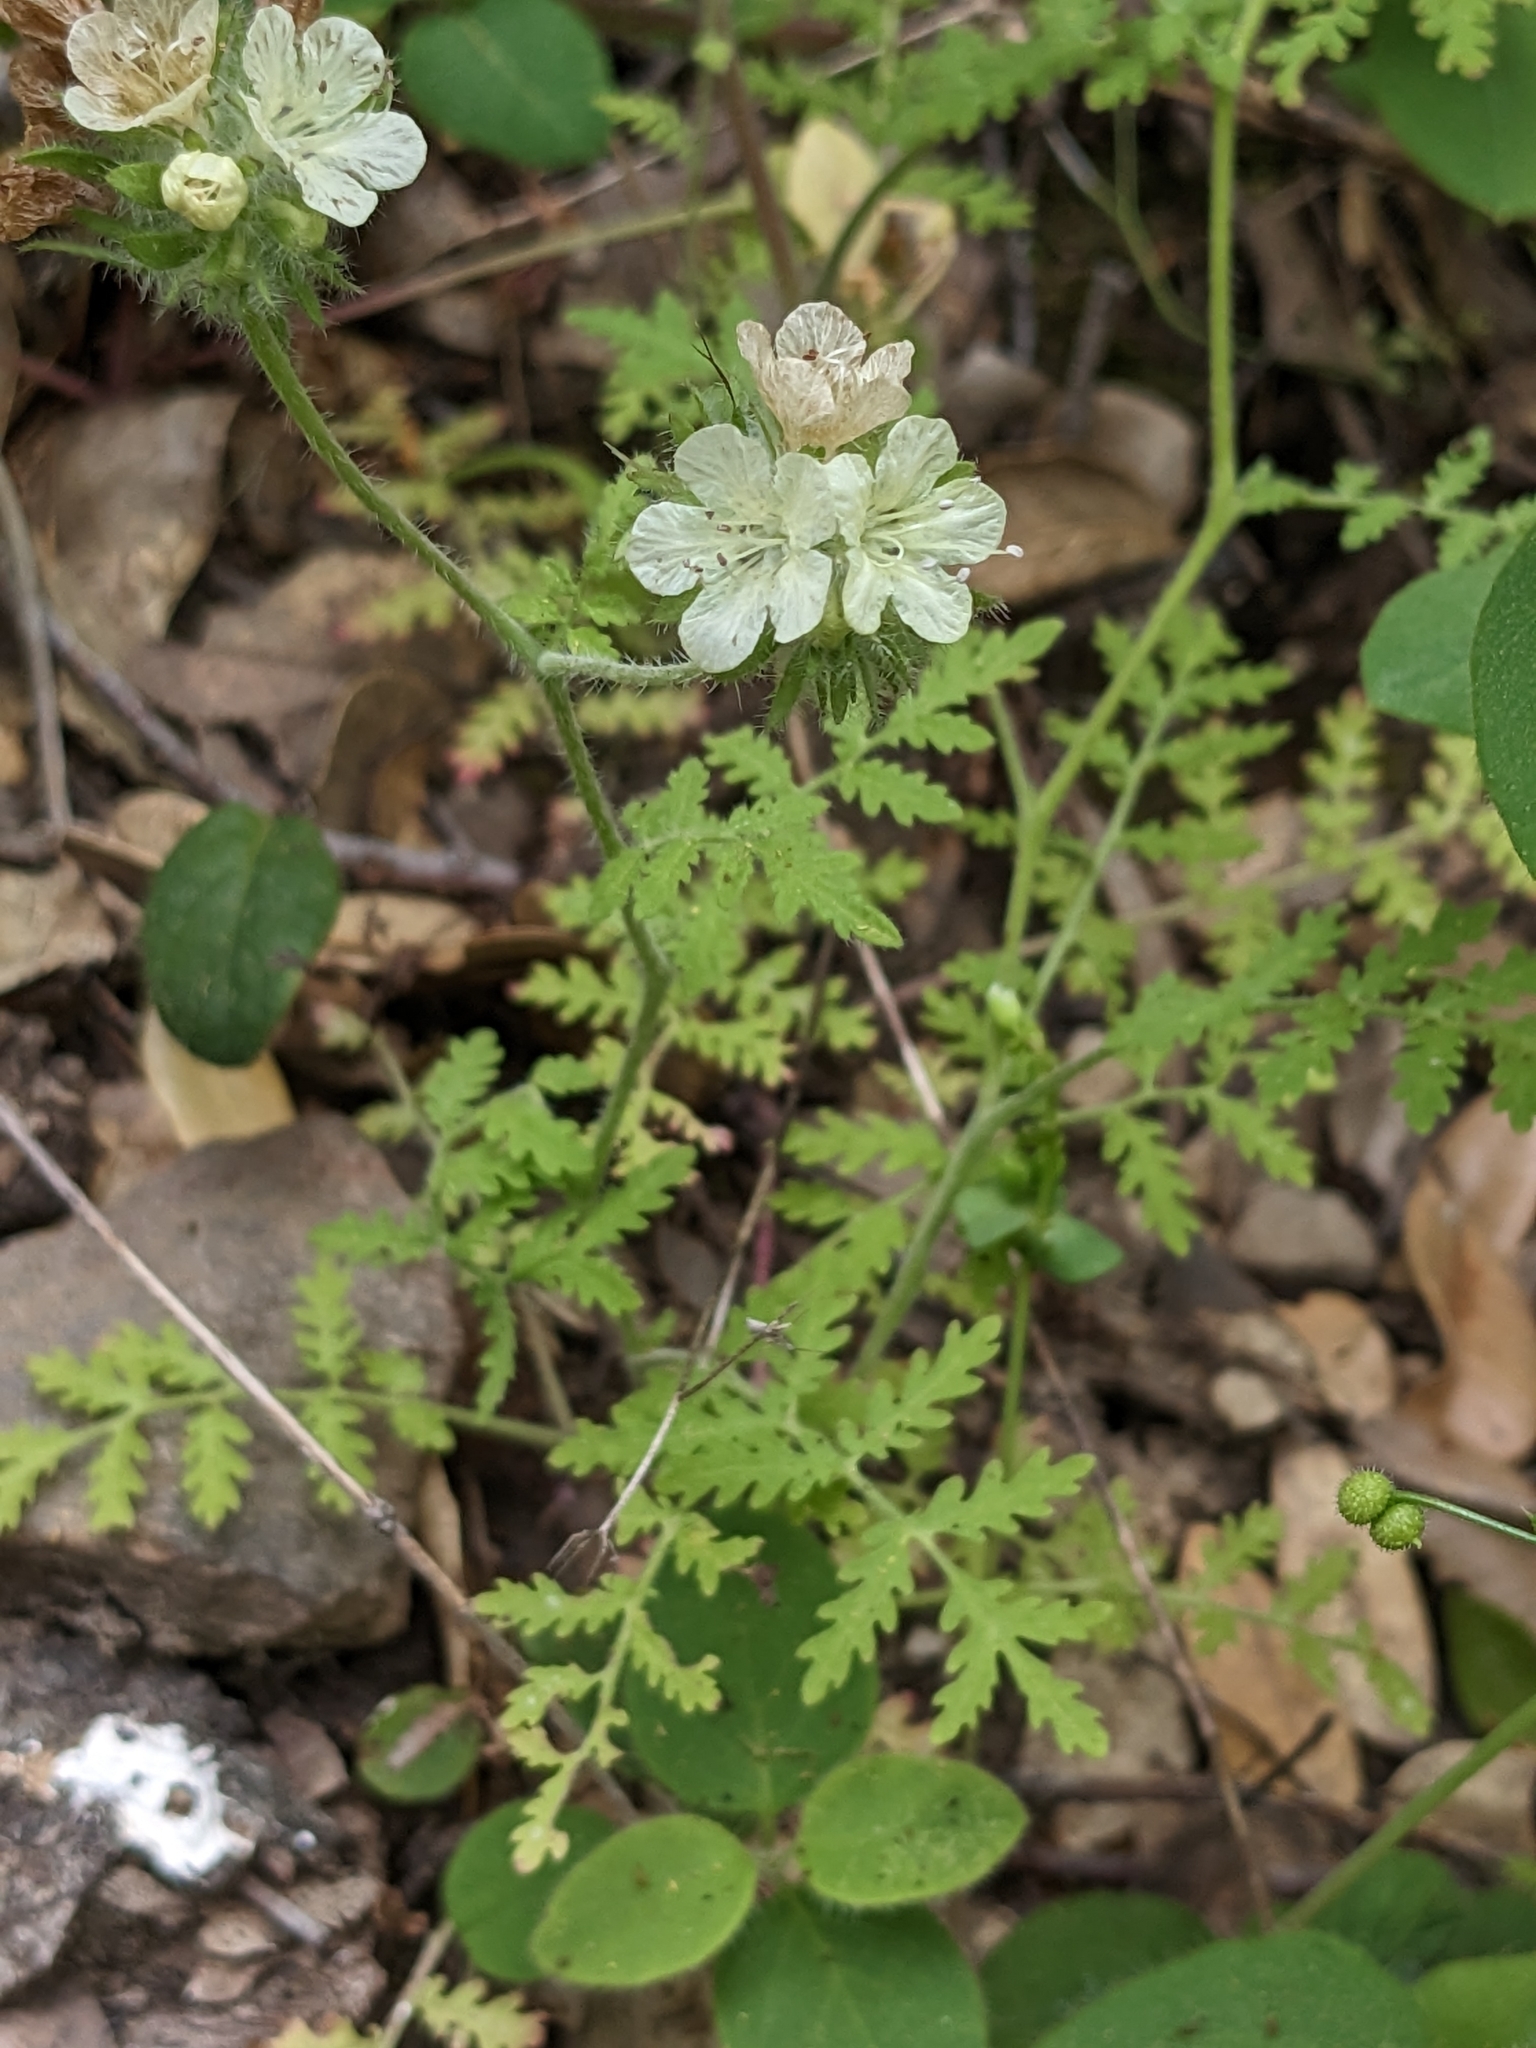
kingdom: Plantae
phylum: Tracheophyta
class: Magnoliopsida
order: Boraginales
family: Hydrophyllaceae
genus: Phacelia
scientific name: Phacelia distans
